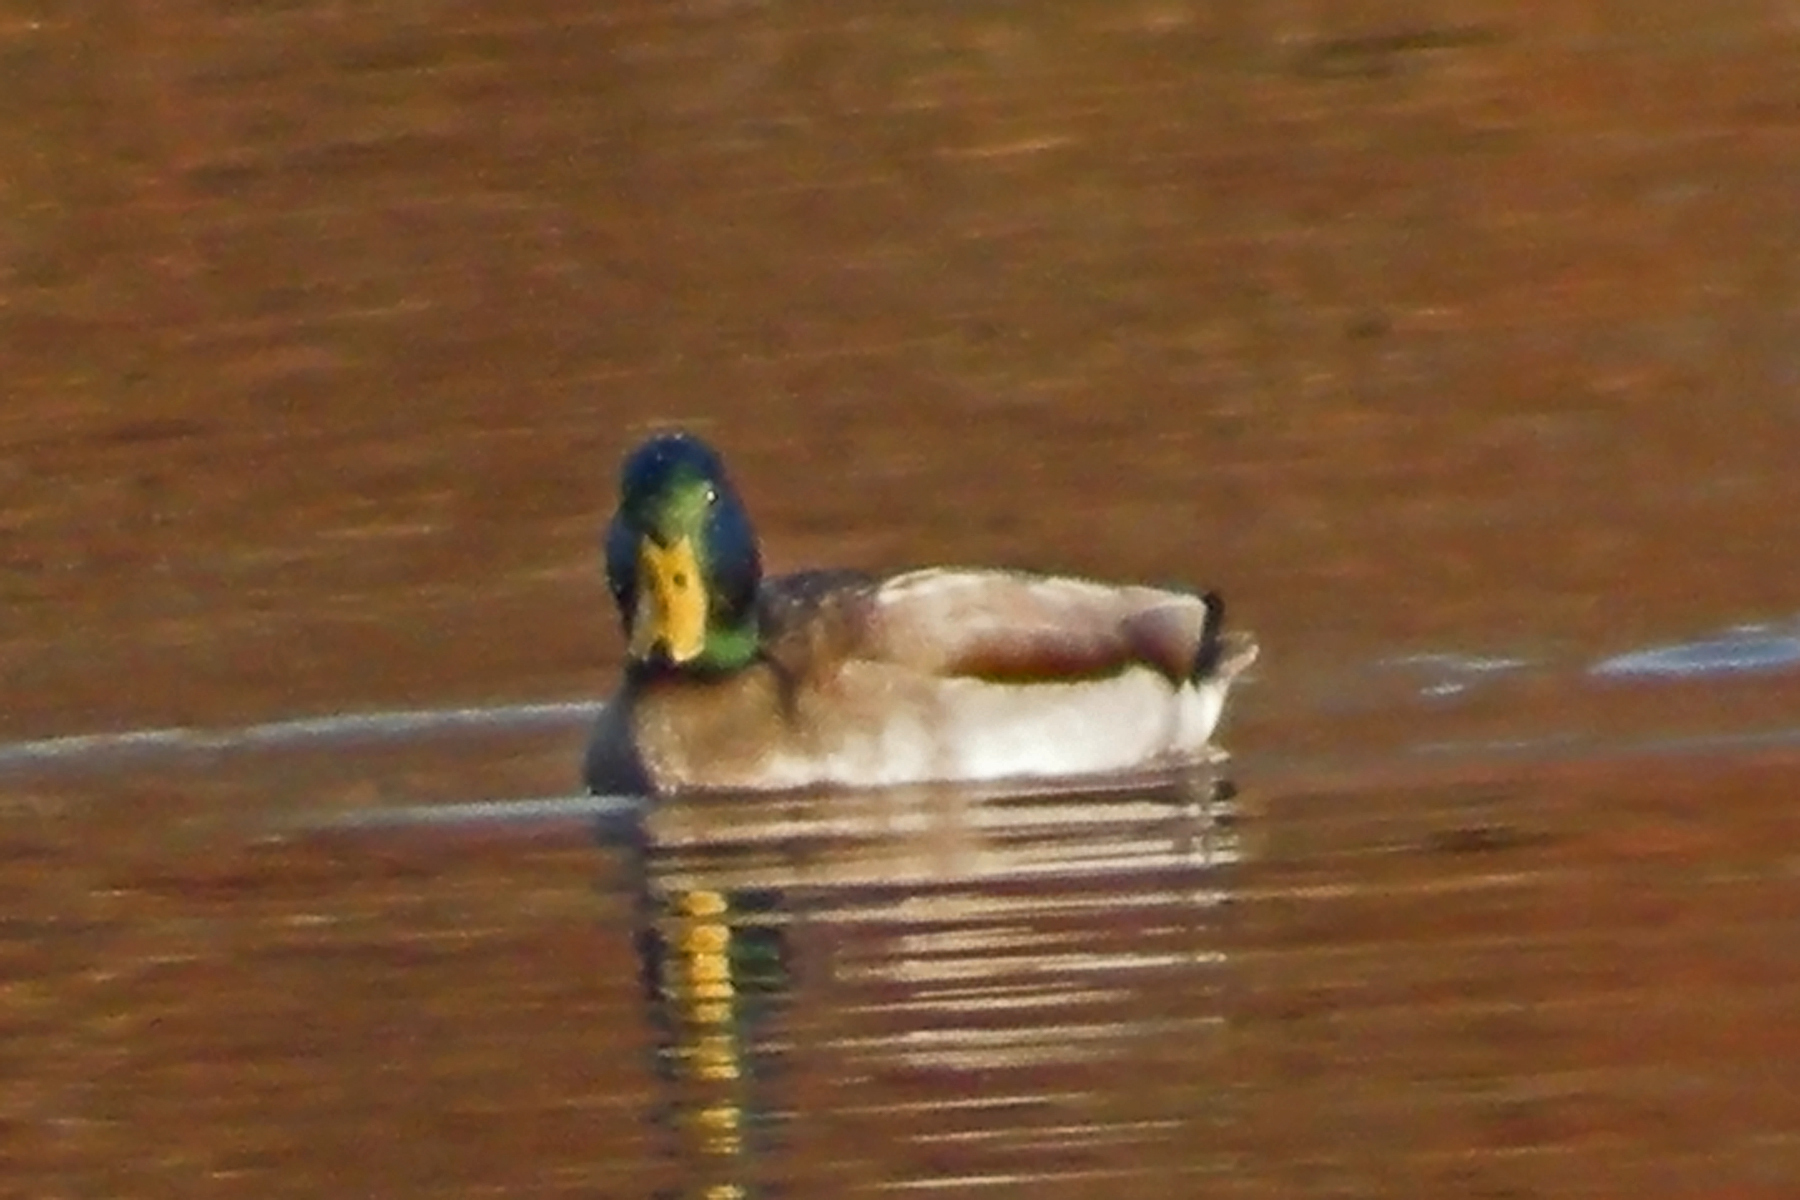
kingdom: Animalia
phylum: Chordata
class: Aves
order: Anseriformes
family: Anatidae
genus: Anas
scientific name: Anas platyrhynchos
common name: Mallard
